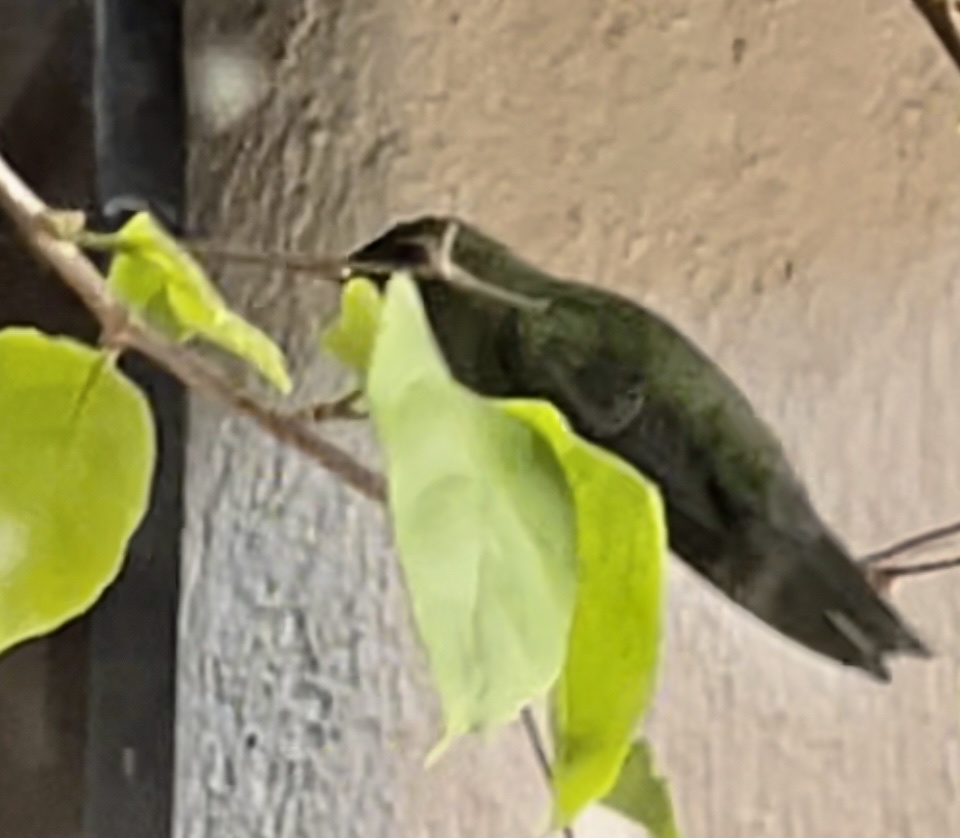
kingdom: Animalia
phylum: Chordata
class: Aves
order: Apodiformes
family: Trochilidae
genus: Cynanthus
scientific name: Cynanthus latirostris
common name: Broad-billed hummingbird
